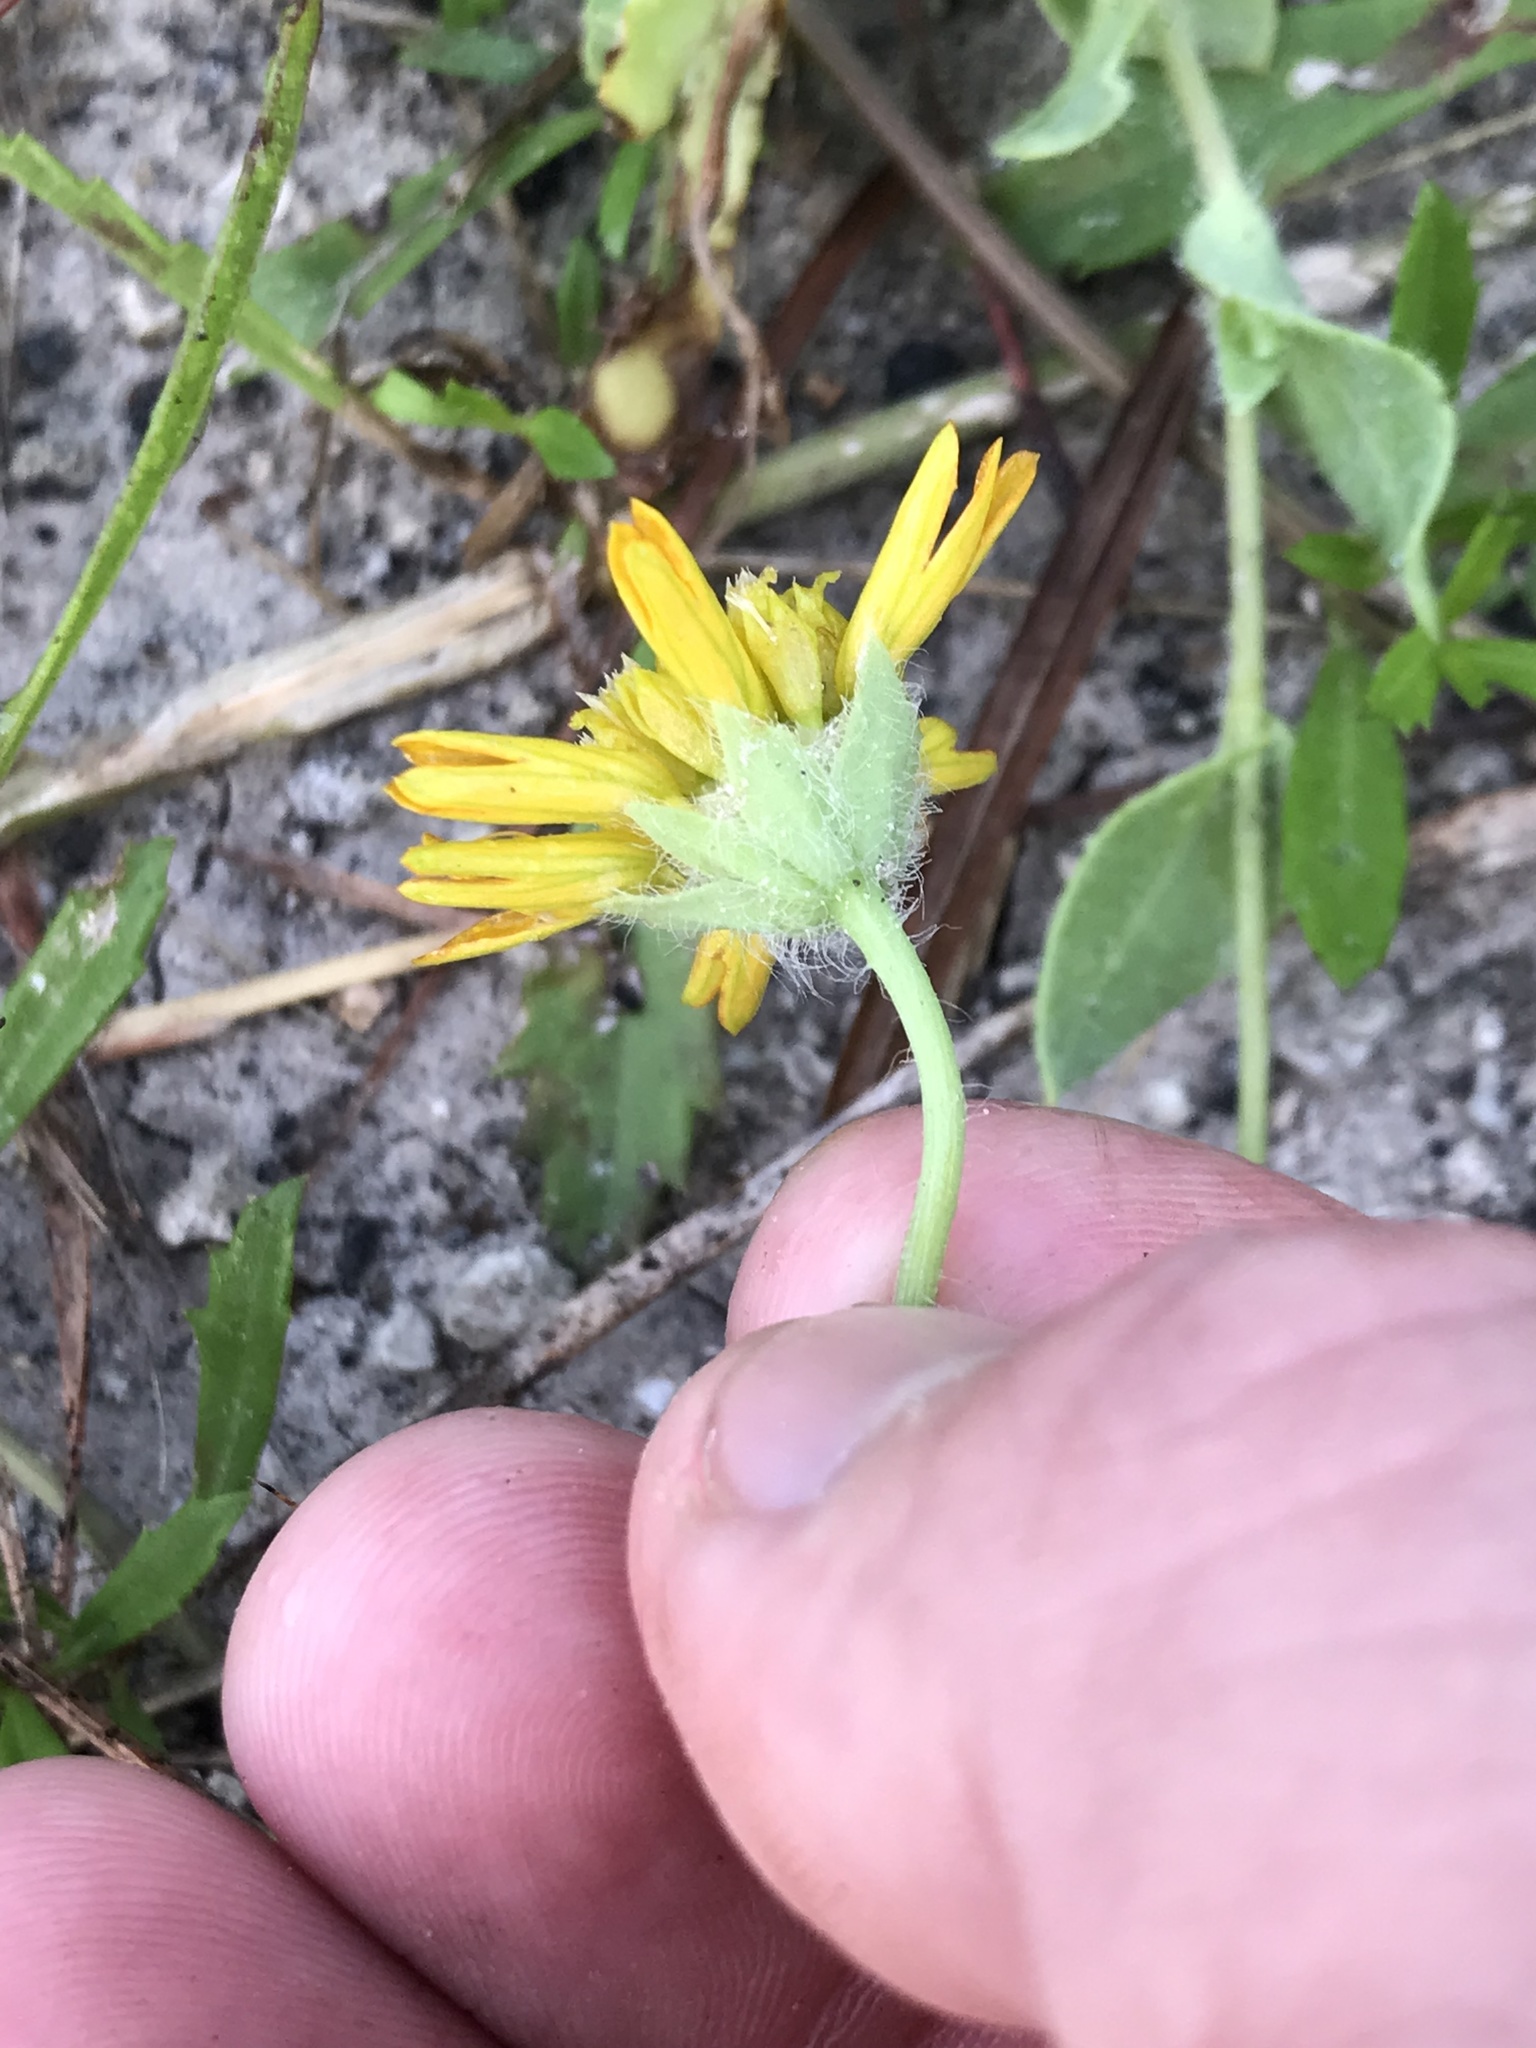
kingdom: Plantae
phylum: Tracheophyta
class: Magnoliopsida
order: Asterales
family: Asteraceae
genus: Amblyolepis
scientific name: Amblyolepis setigera
